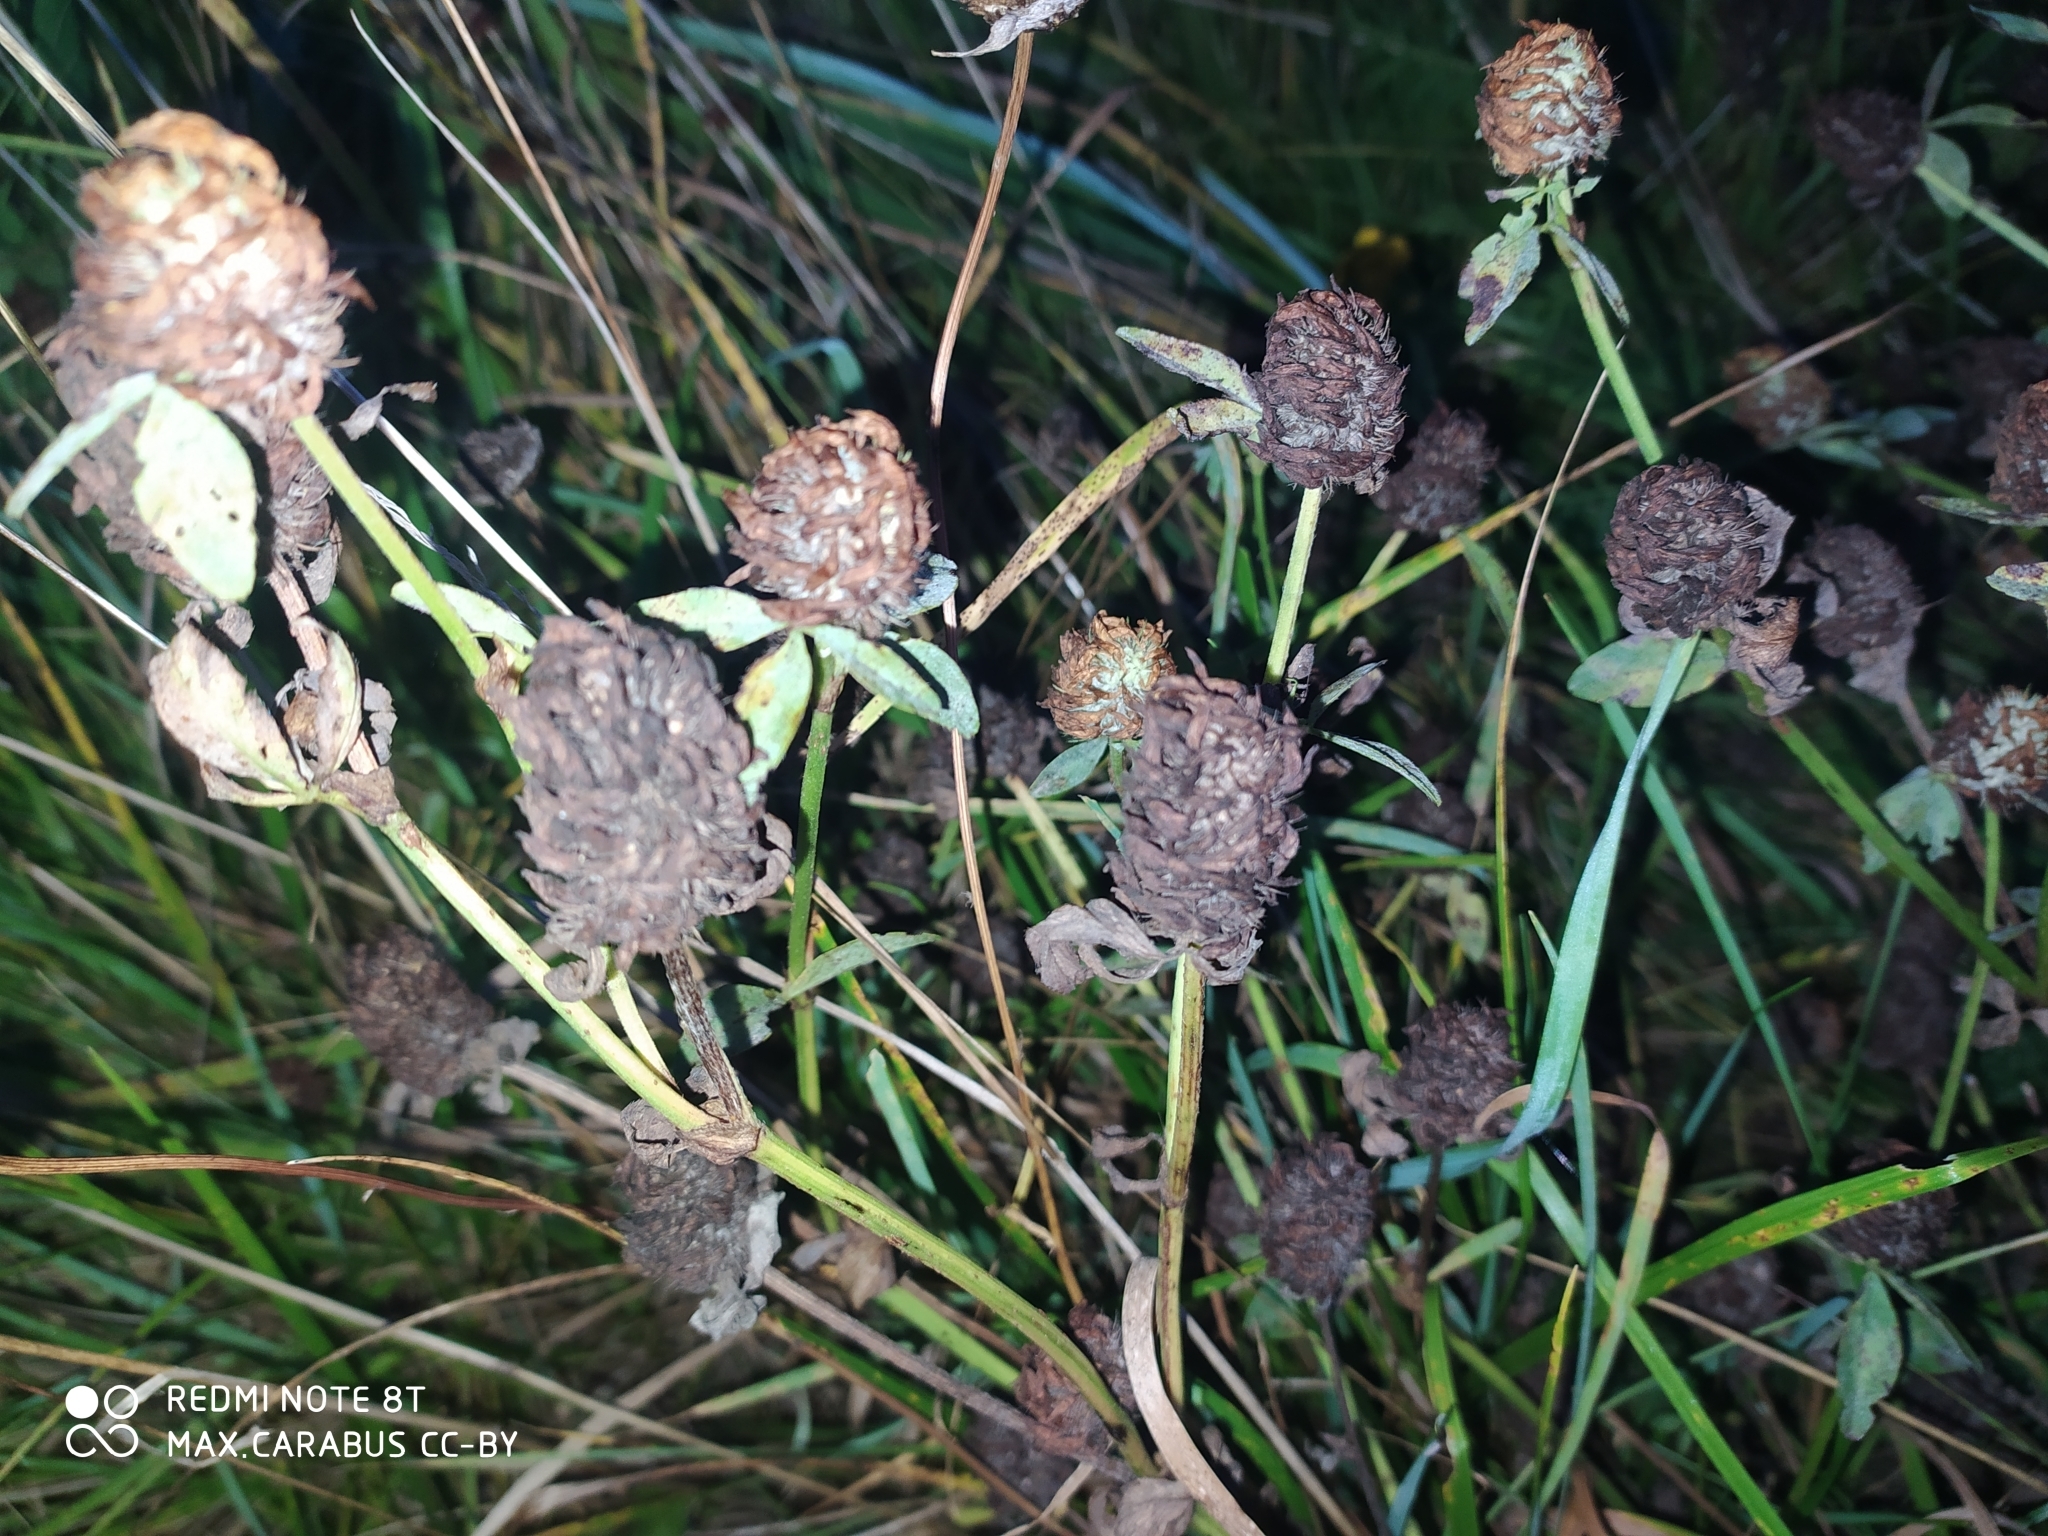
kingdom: Plantae
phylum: Tracheophyta
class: Magnoliopsida
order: Fabales
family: Fabaceae
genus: Trifolium
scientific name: Trifolium pratense
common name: Red clover
